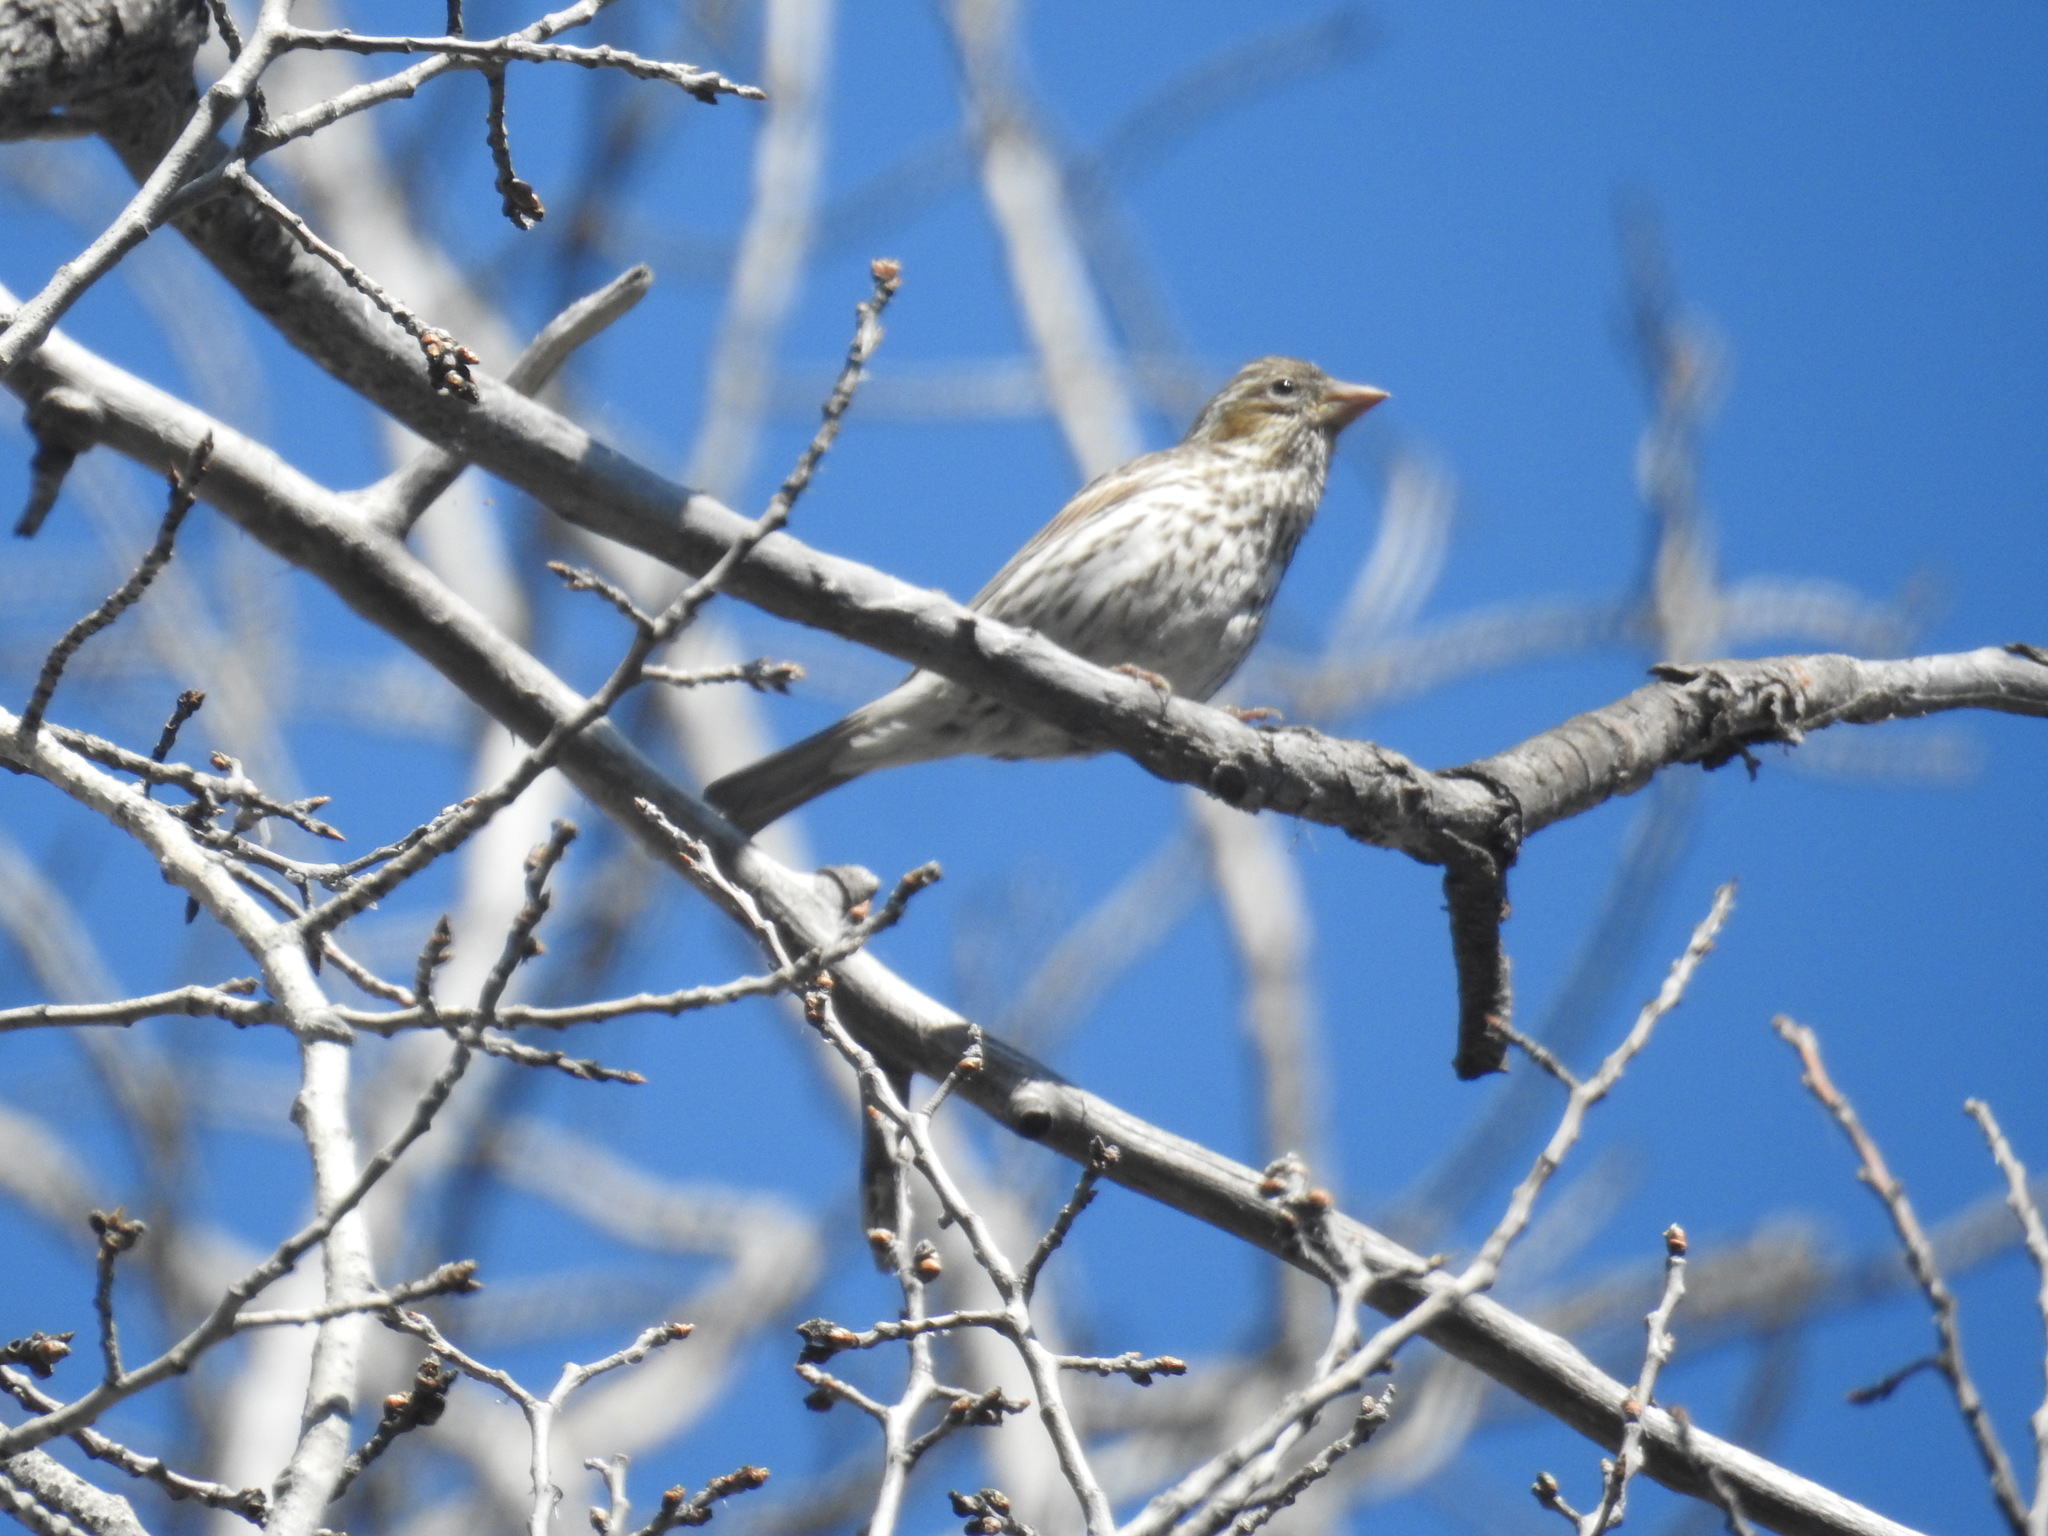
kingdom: Animalia
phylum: Chordata
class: Aves
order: Passeriformes
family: Fringillidae
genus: Haemorhous
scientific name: Haemorhous cassinii
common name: Cassin's finch
